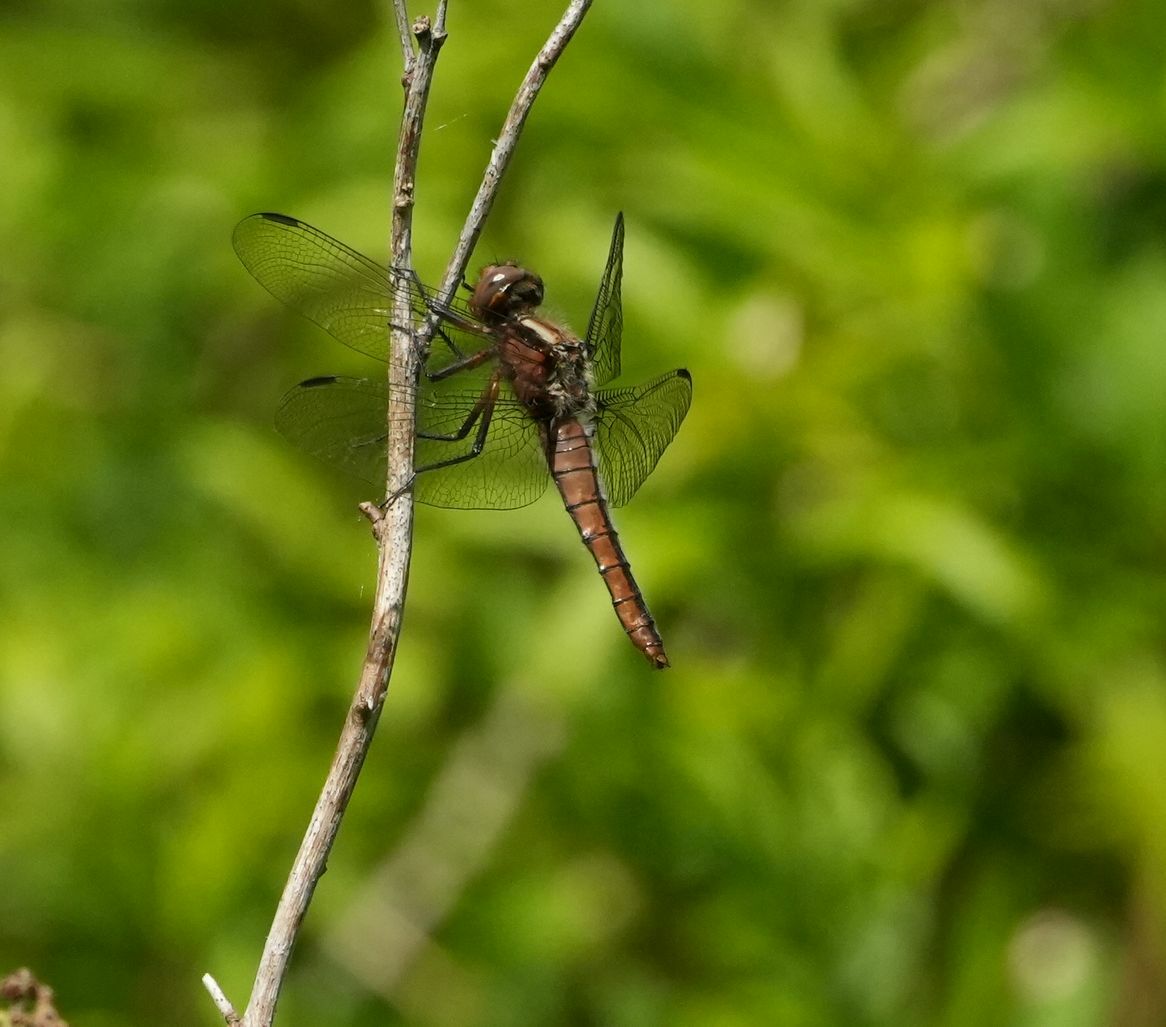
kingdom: Animalia
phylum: Arthropoda
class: Insecta
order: Odonata
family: Libellulidae
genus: Ladona
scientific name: Ladona julia
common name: Chalk-fronted corporal
